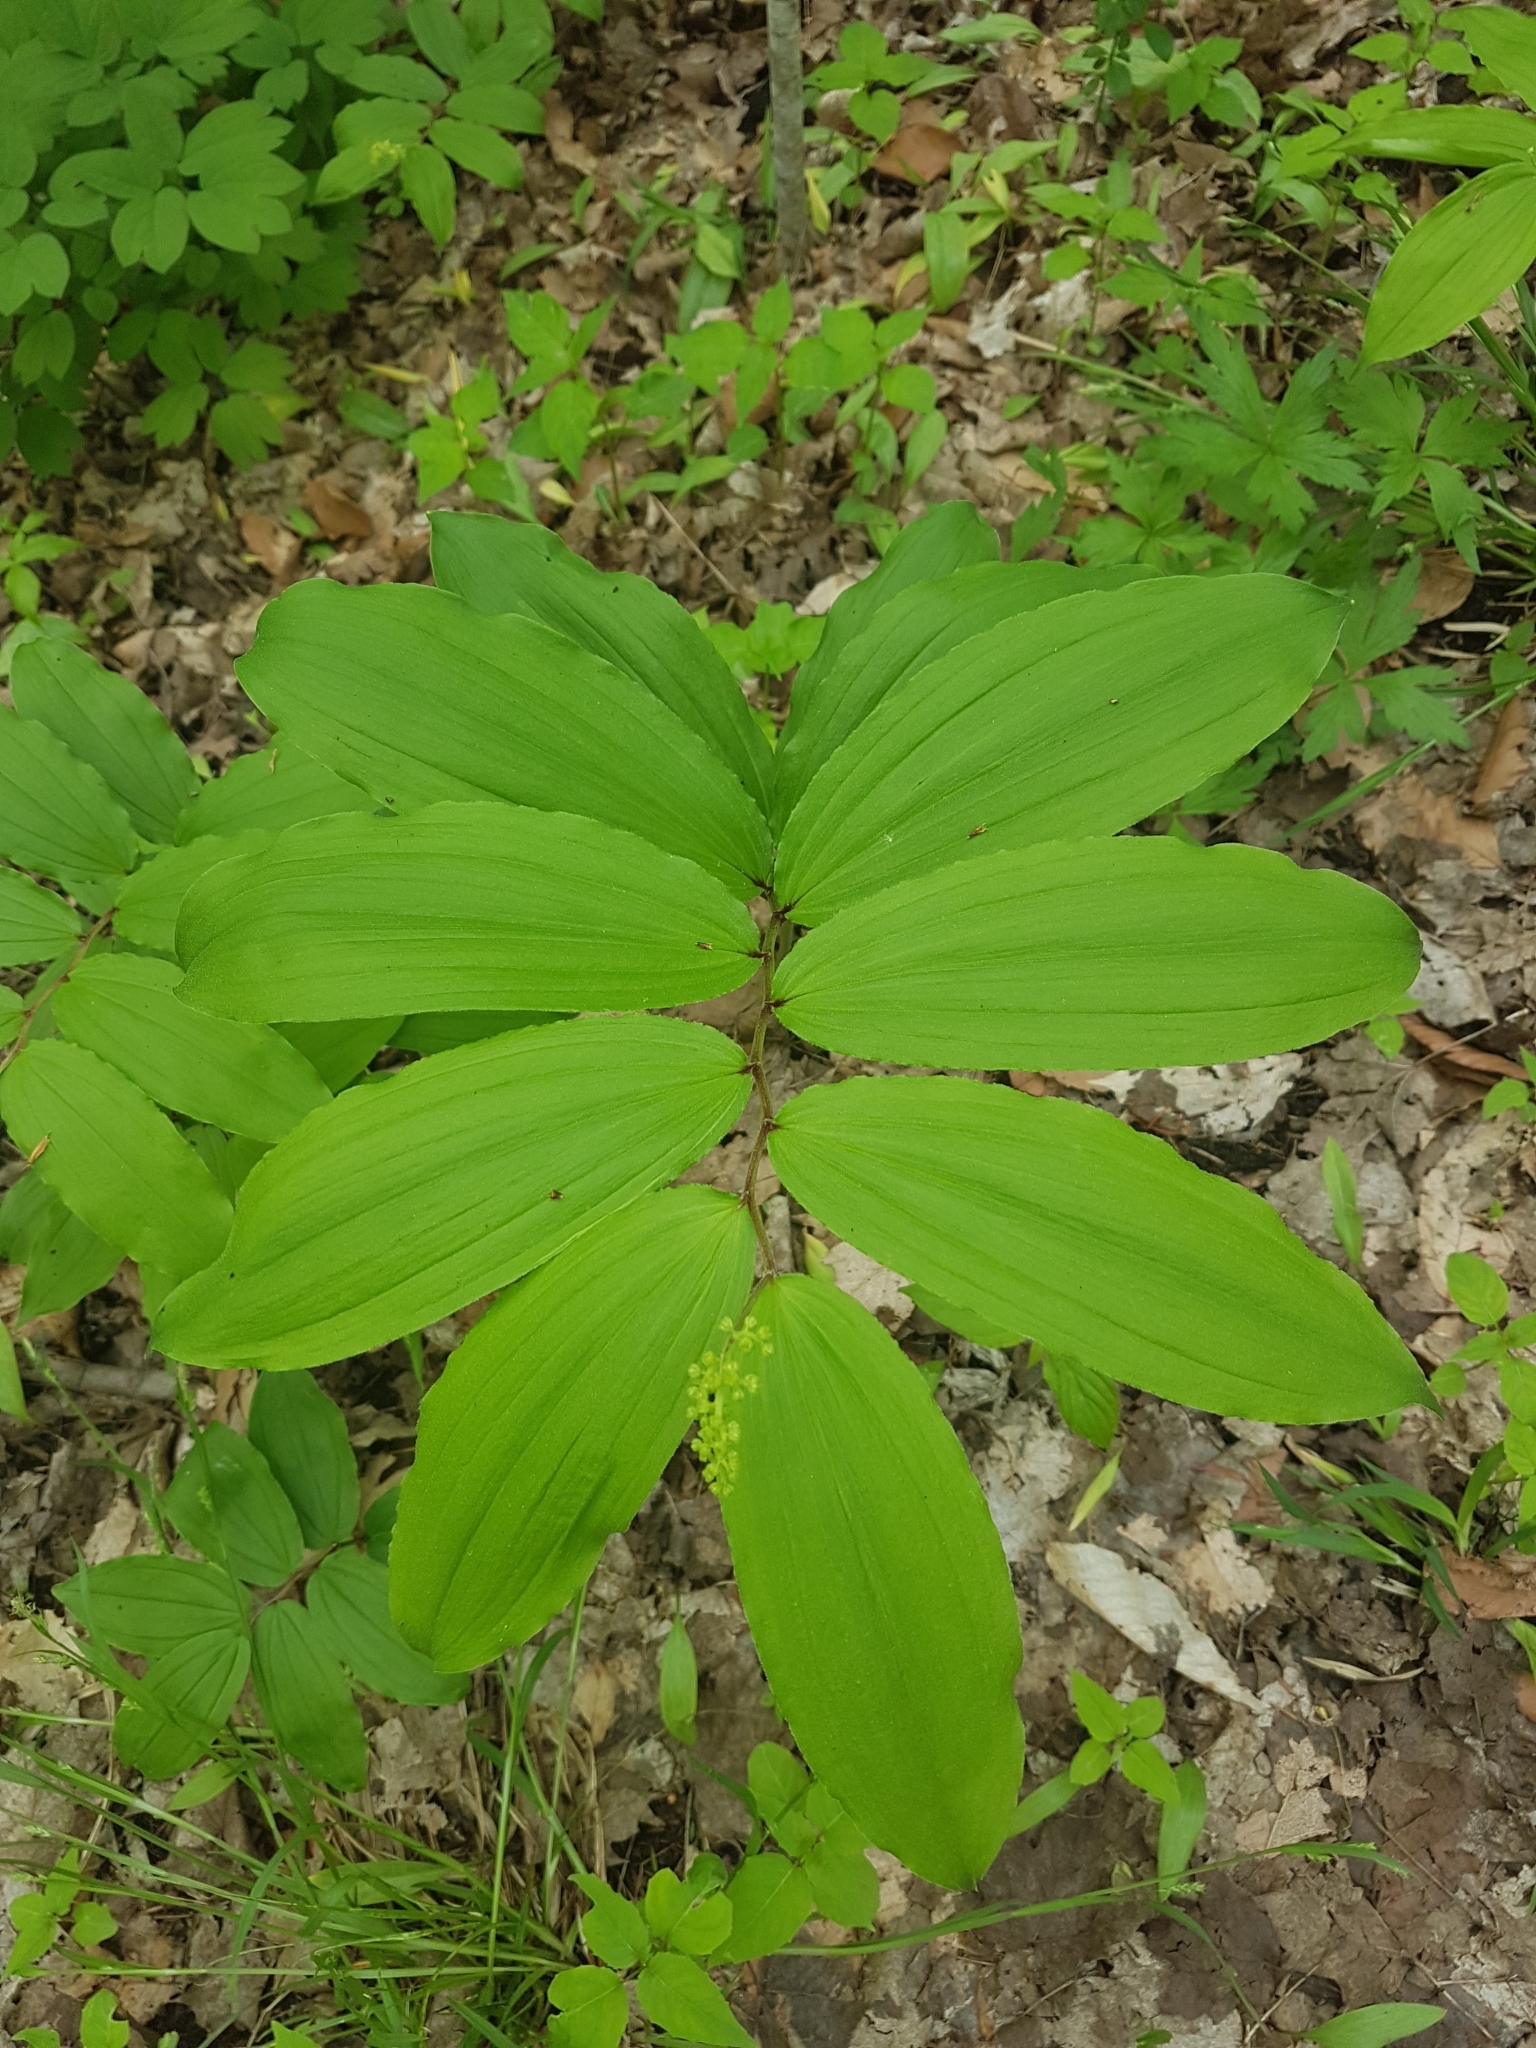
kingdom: Plantae
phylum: Tracheophyta
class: Liliopsida
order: Asparagales
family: Asparagaceae
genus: Maianthemum
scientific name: Maianthemum racemosum
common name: False spikenard
